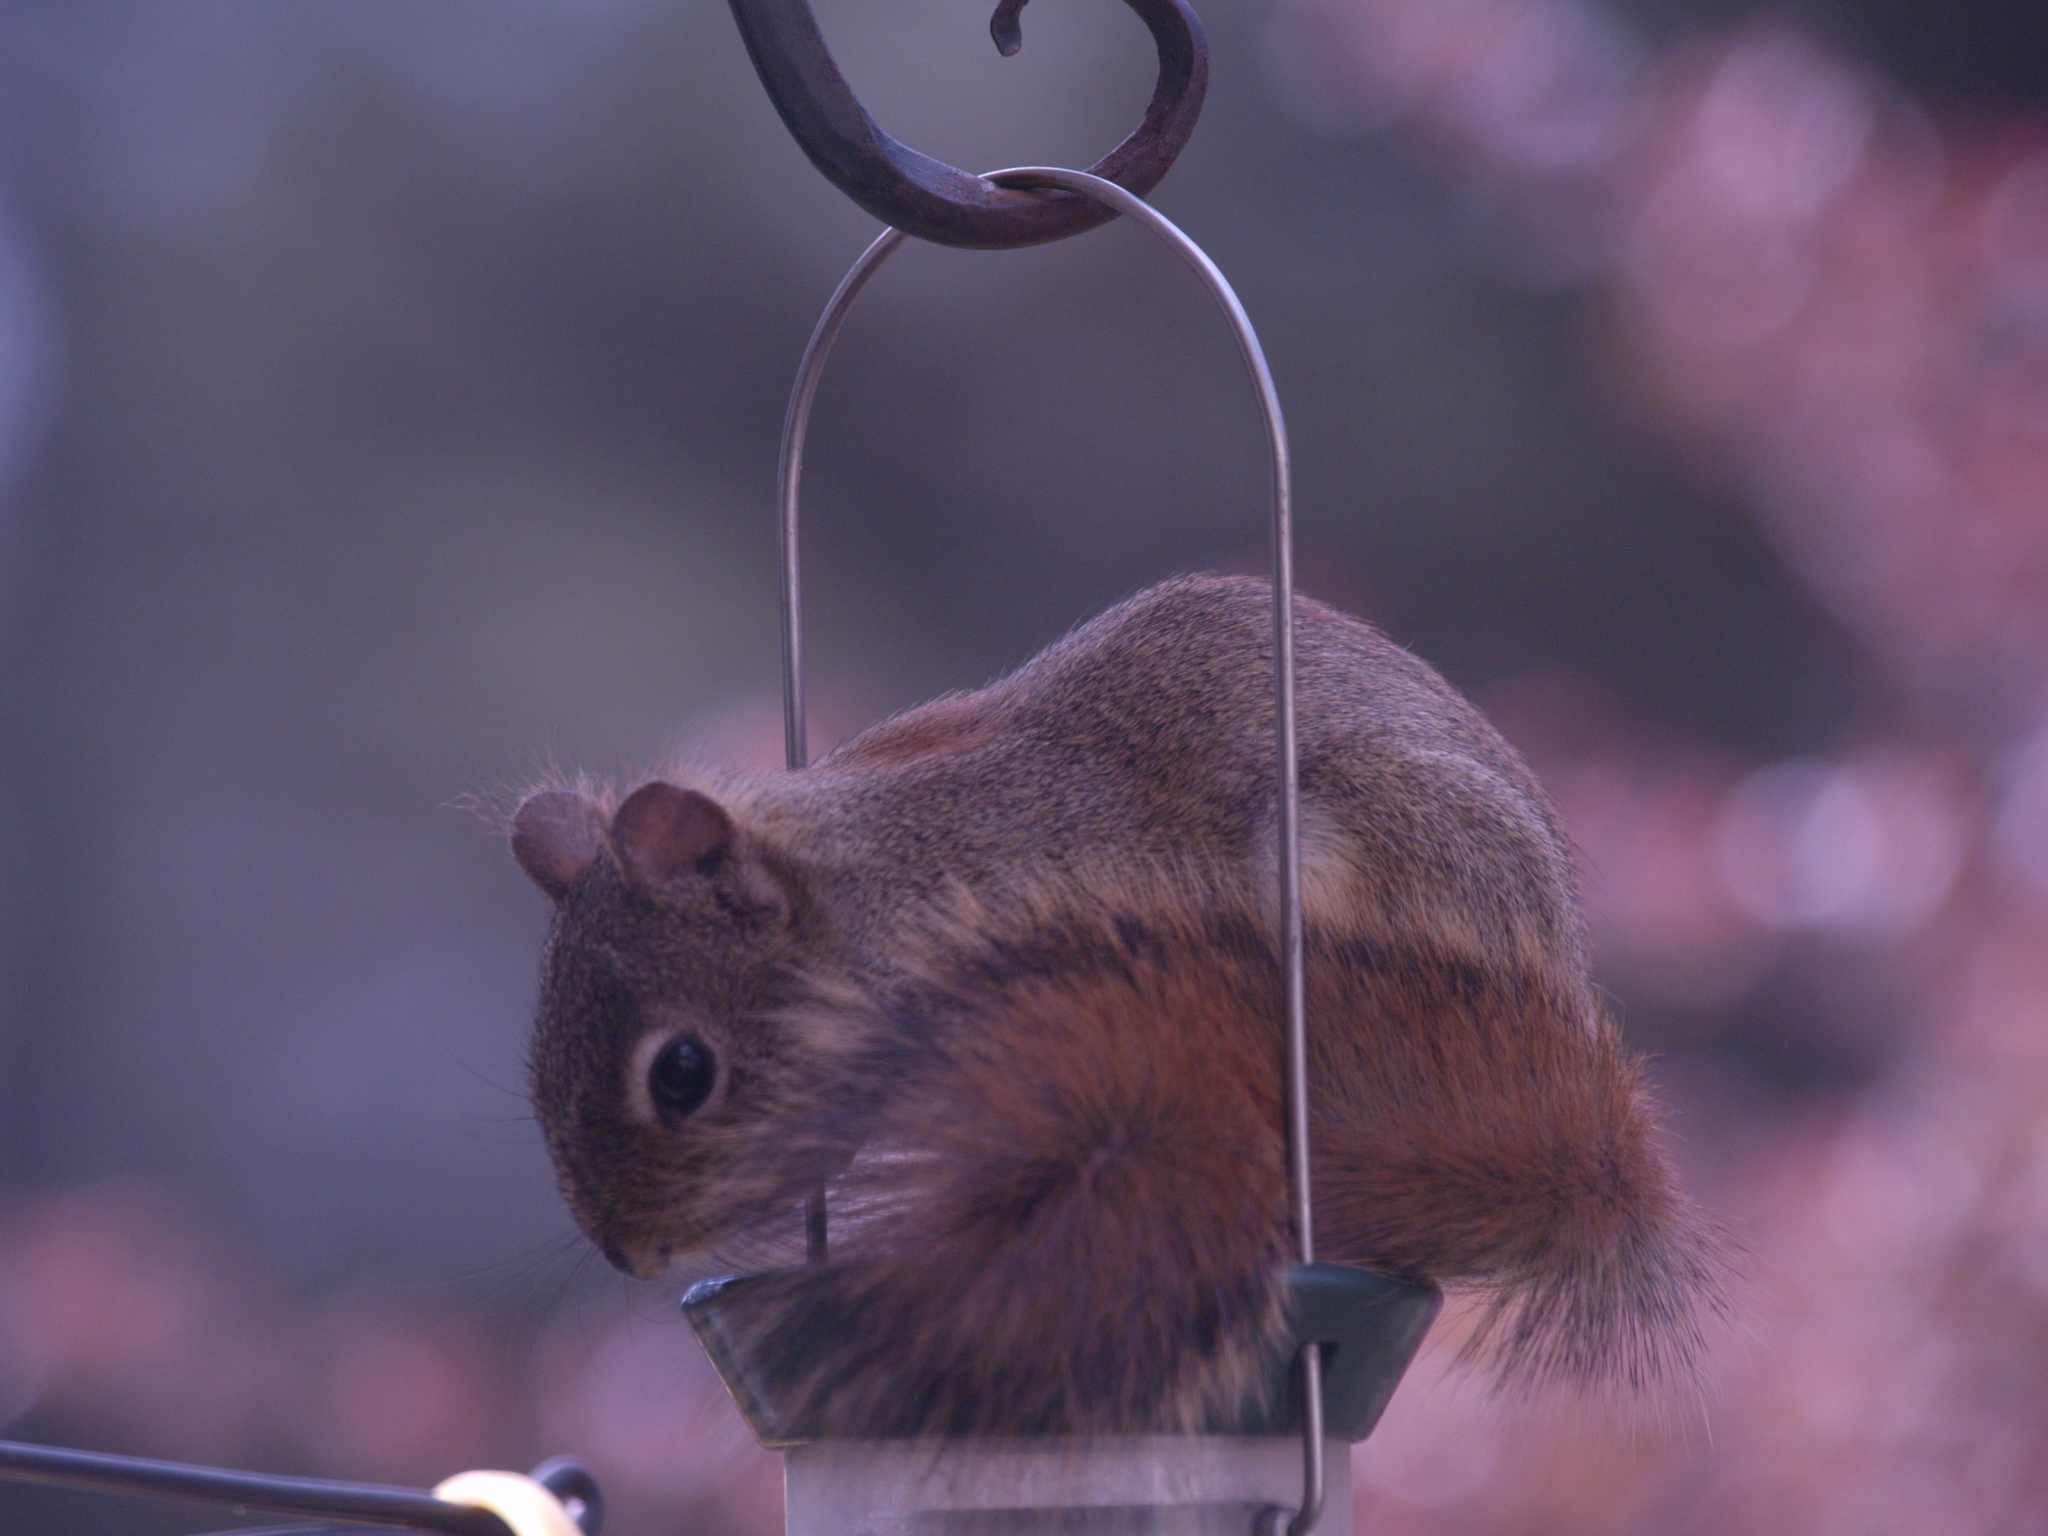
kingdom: Animalia
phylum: Chordata
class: Mammalia
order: Rodentia
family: Sciuridae
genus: Tamiasciurus
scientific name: Tamiasciurus hudsonicus
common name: Red squirrel
